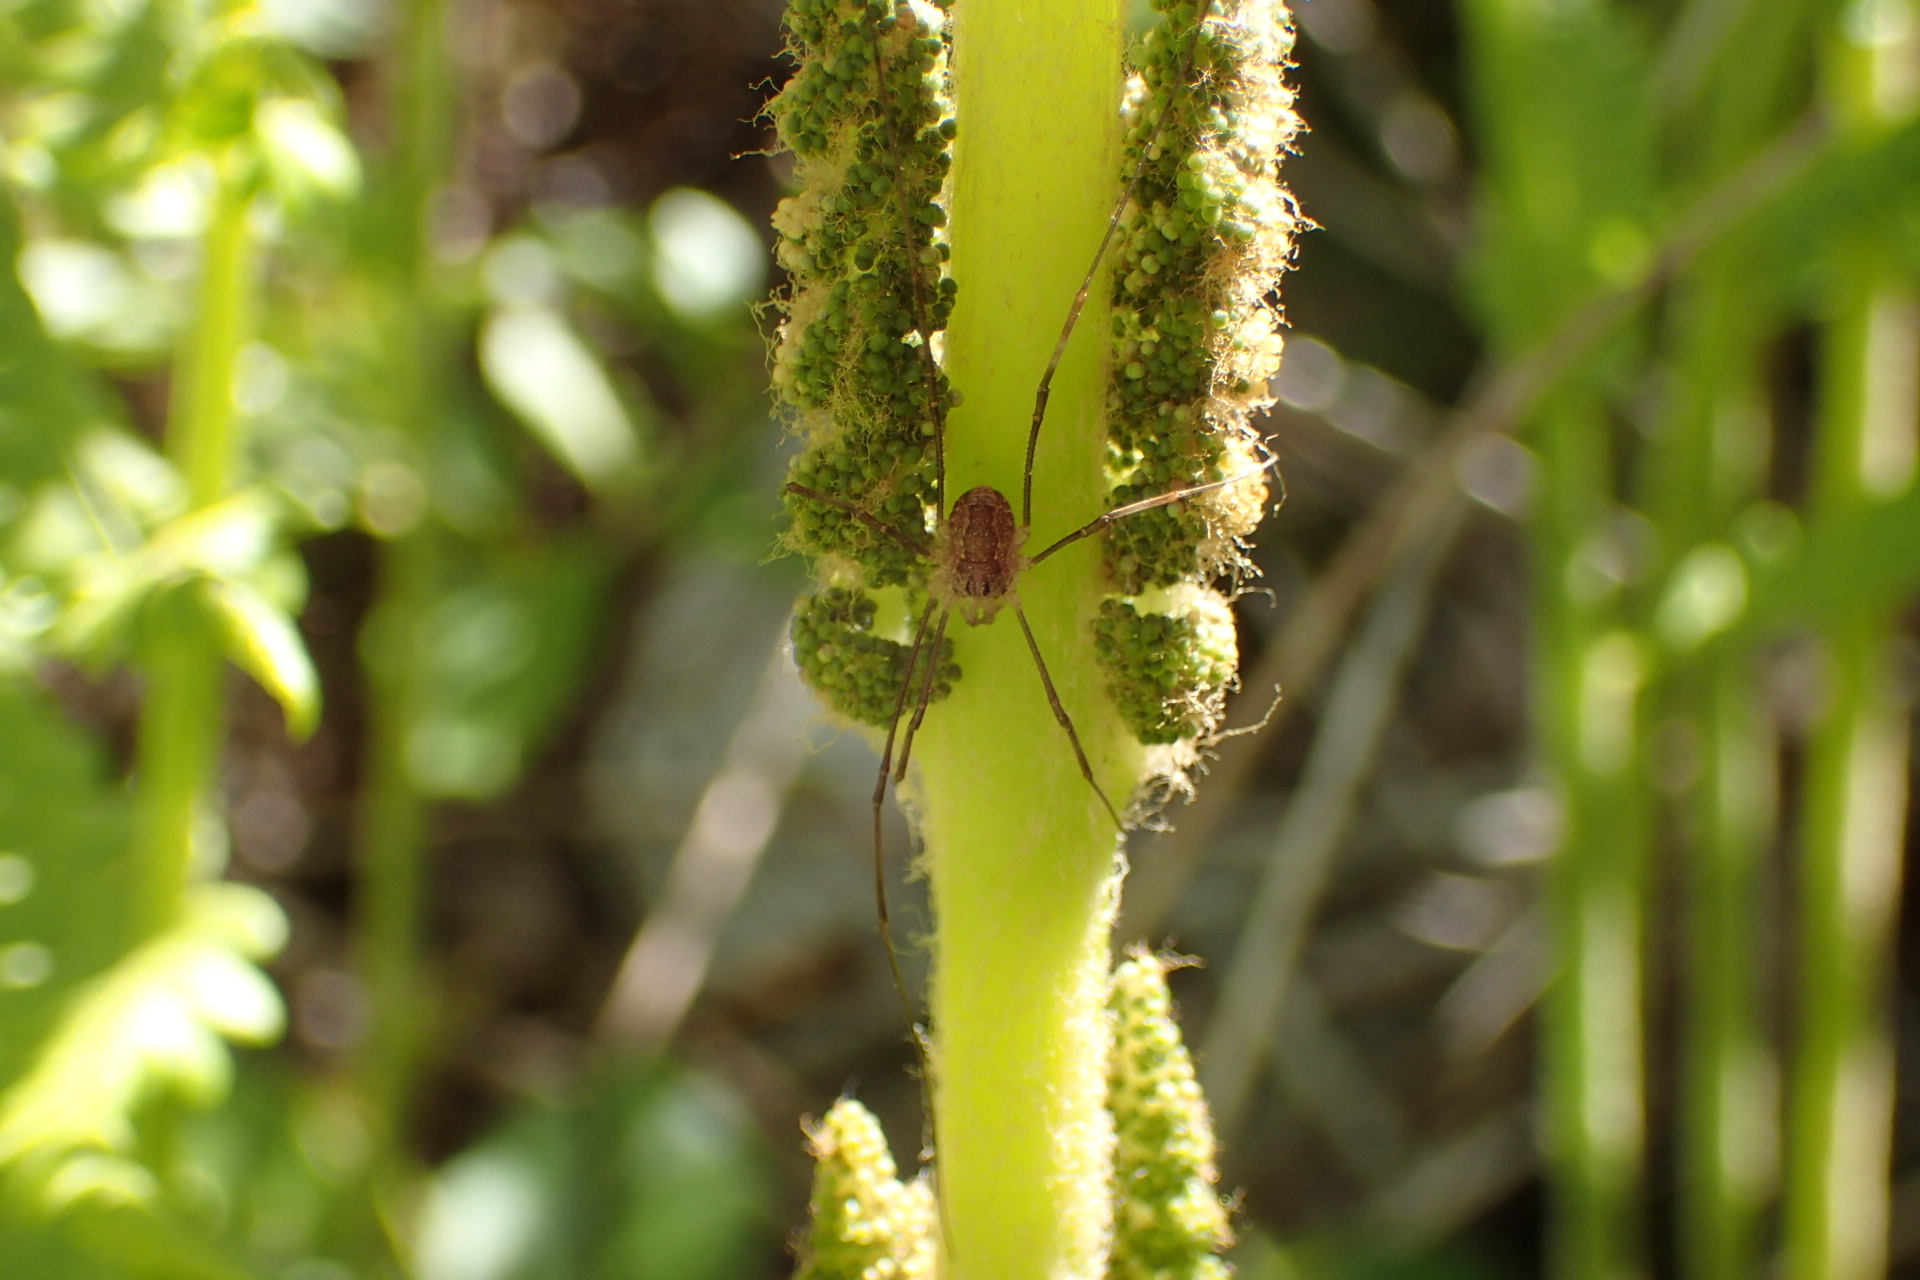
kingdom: Animalia
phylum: Arthropoda
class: Arachnida
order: Opiliones
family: Phalangiidae
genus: Rilaena
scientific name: Rilaena triangularis
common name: Spring harvestman
